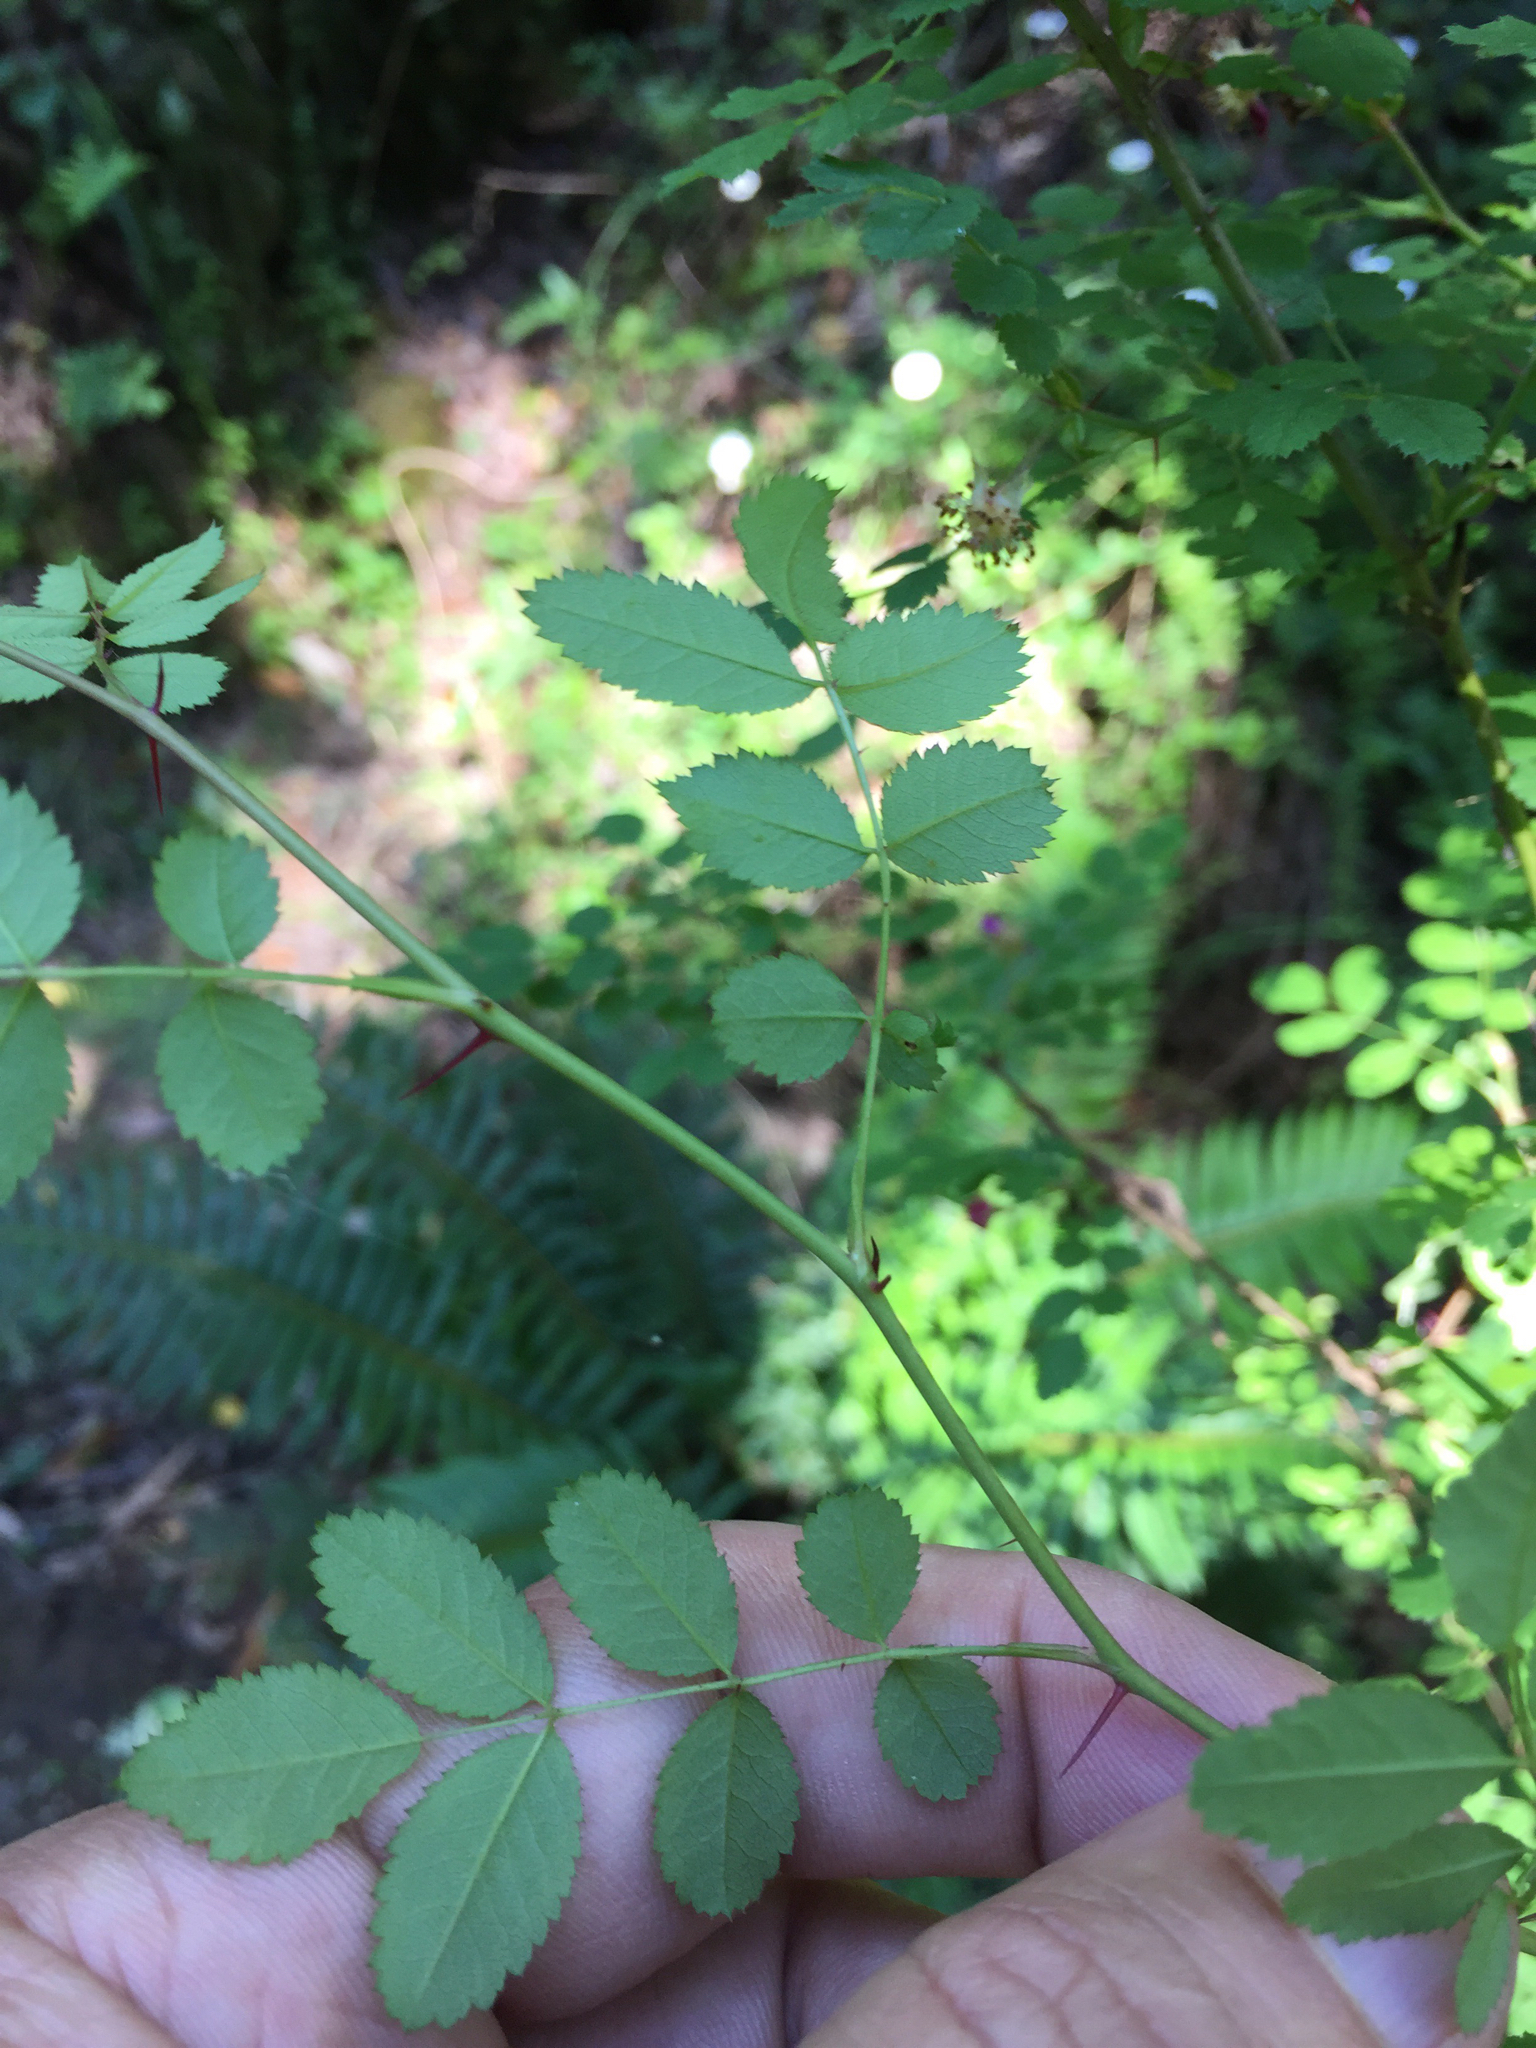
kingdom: Plantae
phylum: Tracheophyta
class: Magnoliopsida
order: Rosales
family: Rosaceae
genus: Rosa
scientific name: Rosa gymnocarpa
